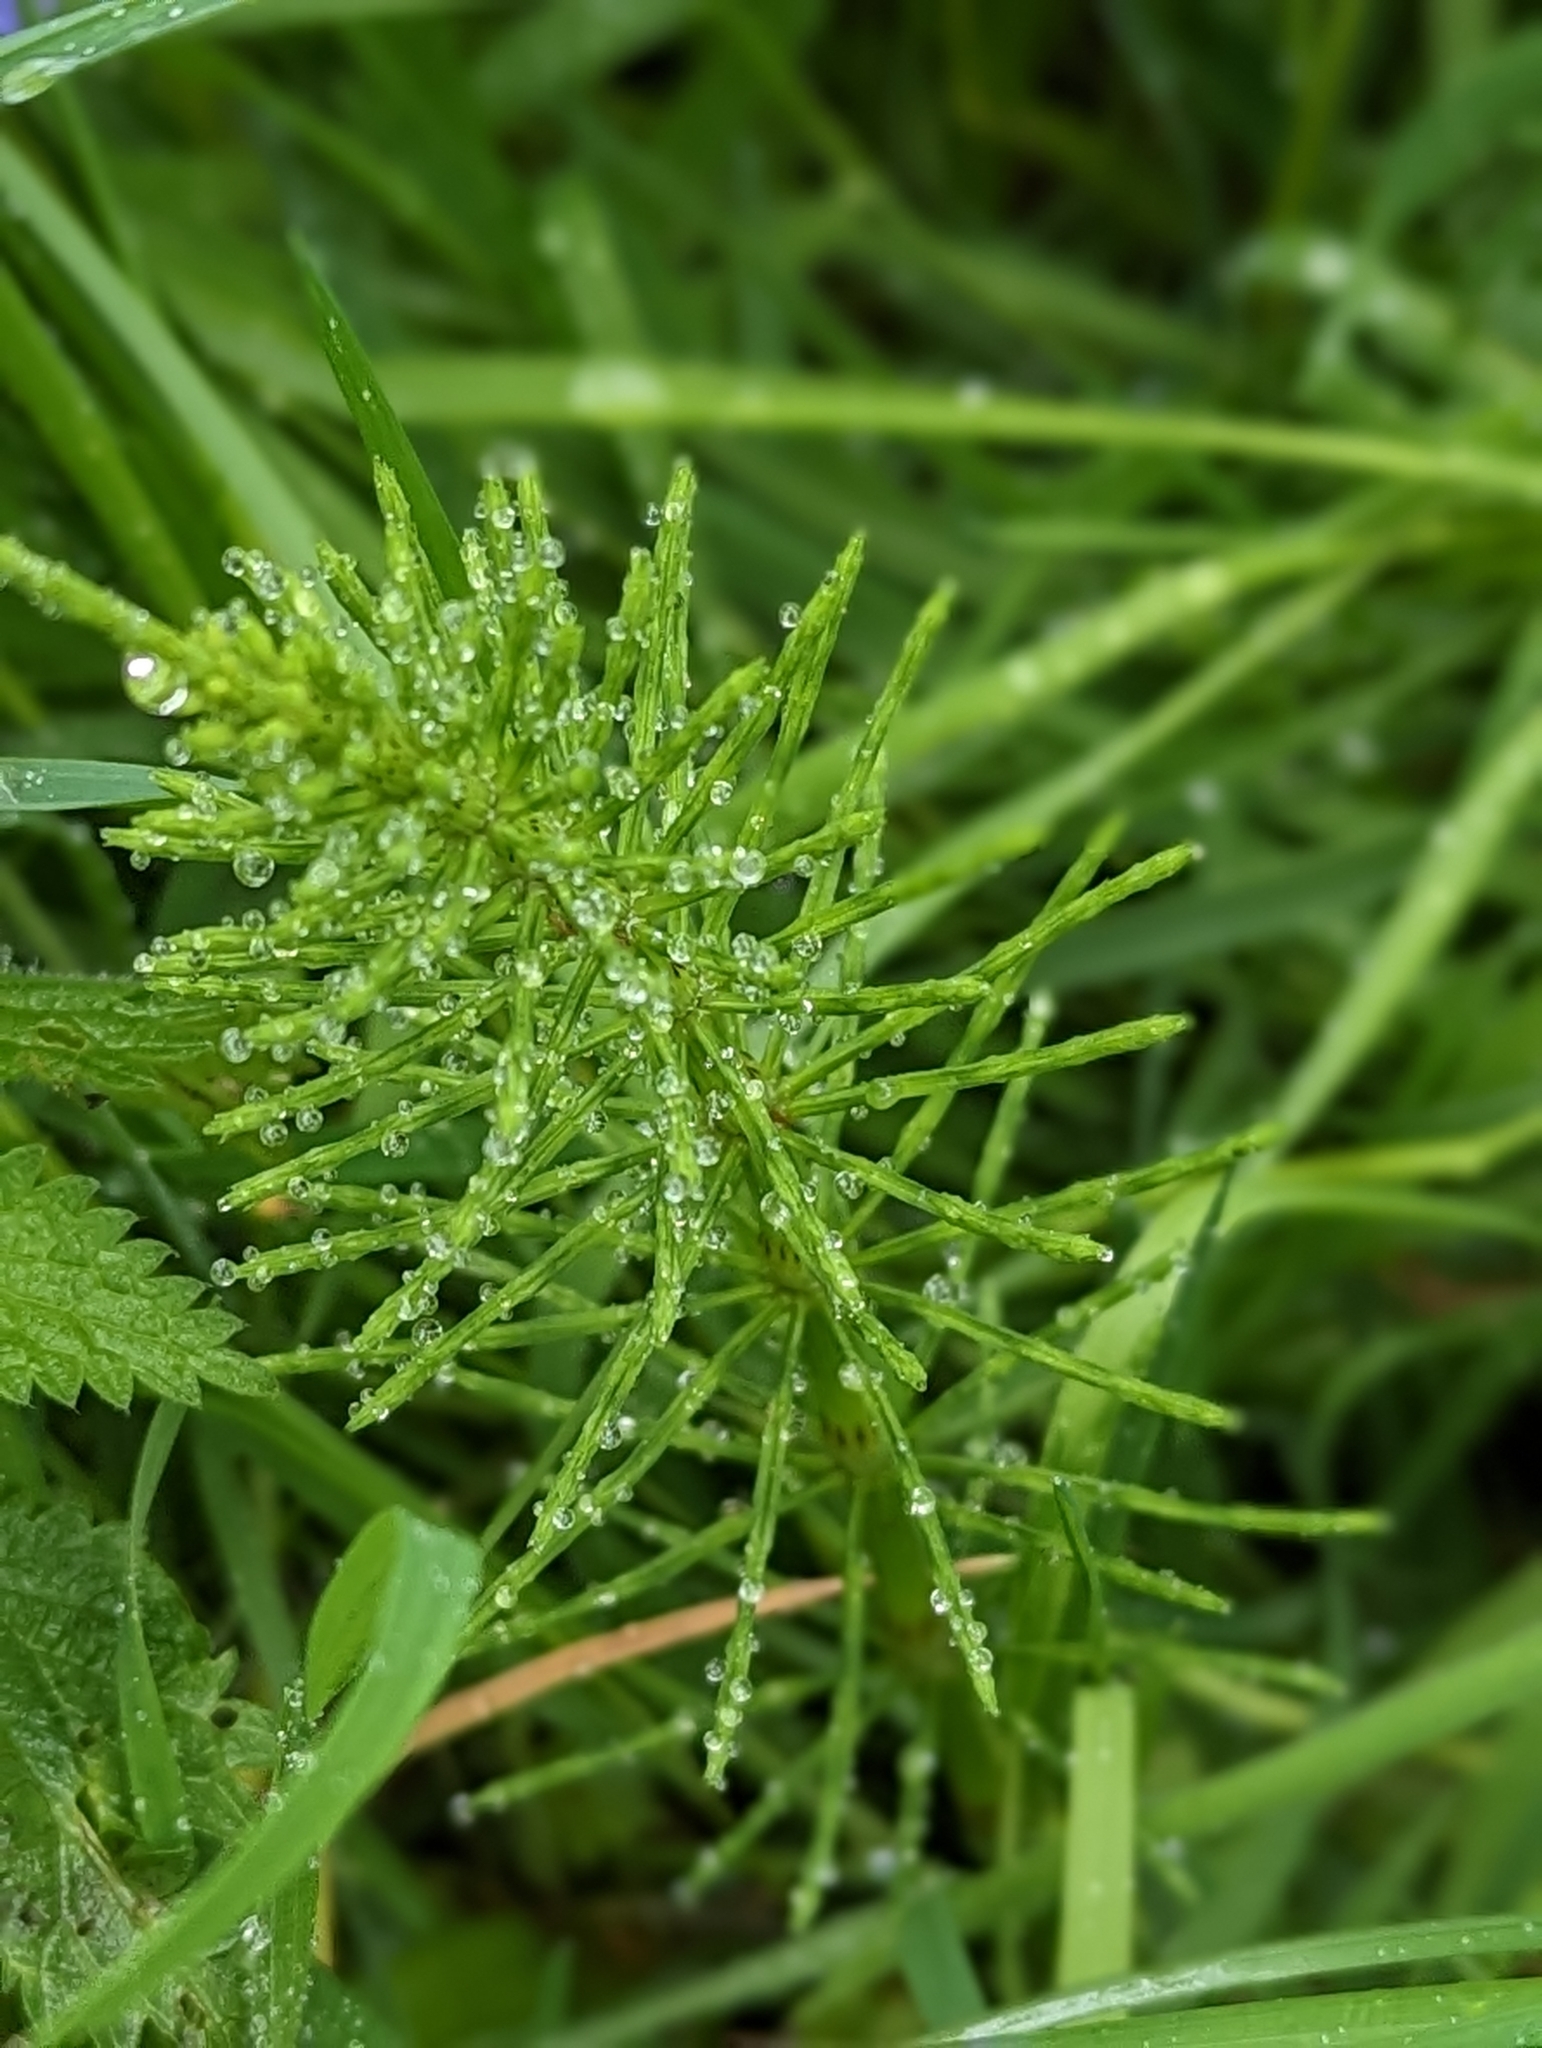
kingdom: Plantae
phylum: Tracheophyta
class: Polypodiopsida
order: Equisetales
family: Equisetaceae
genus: Equisetum
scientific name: Equisetum arvense
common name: Field horsetail
